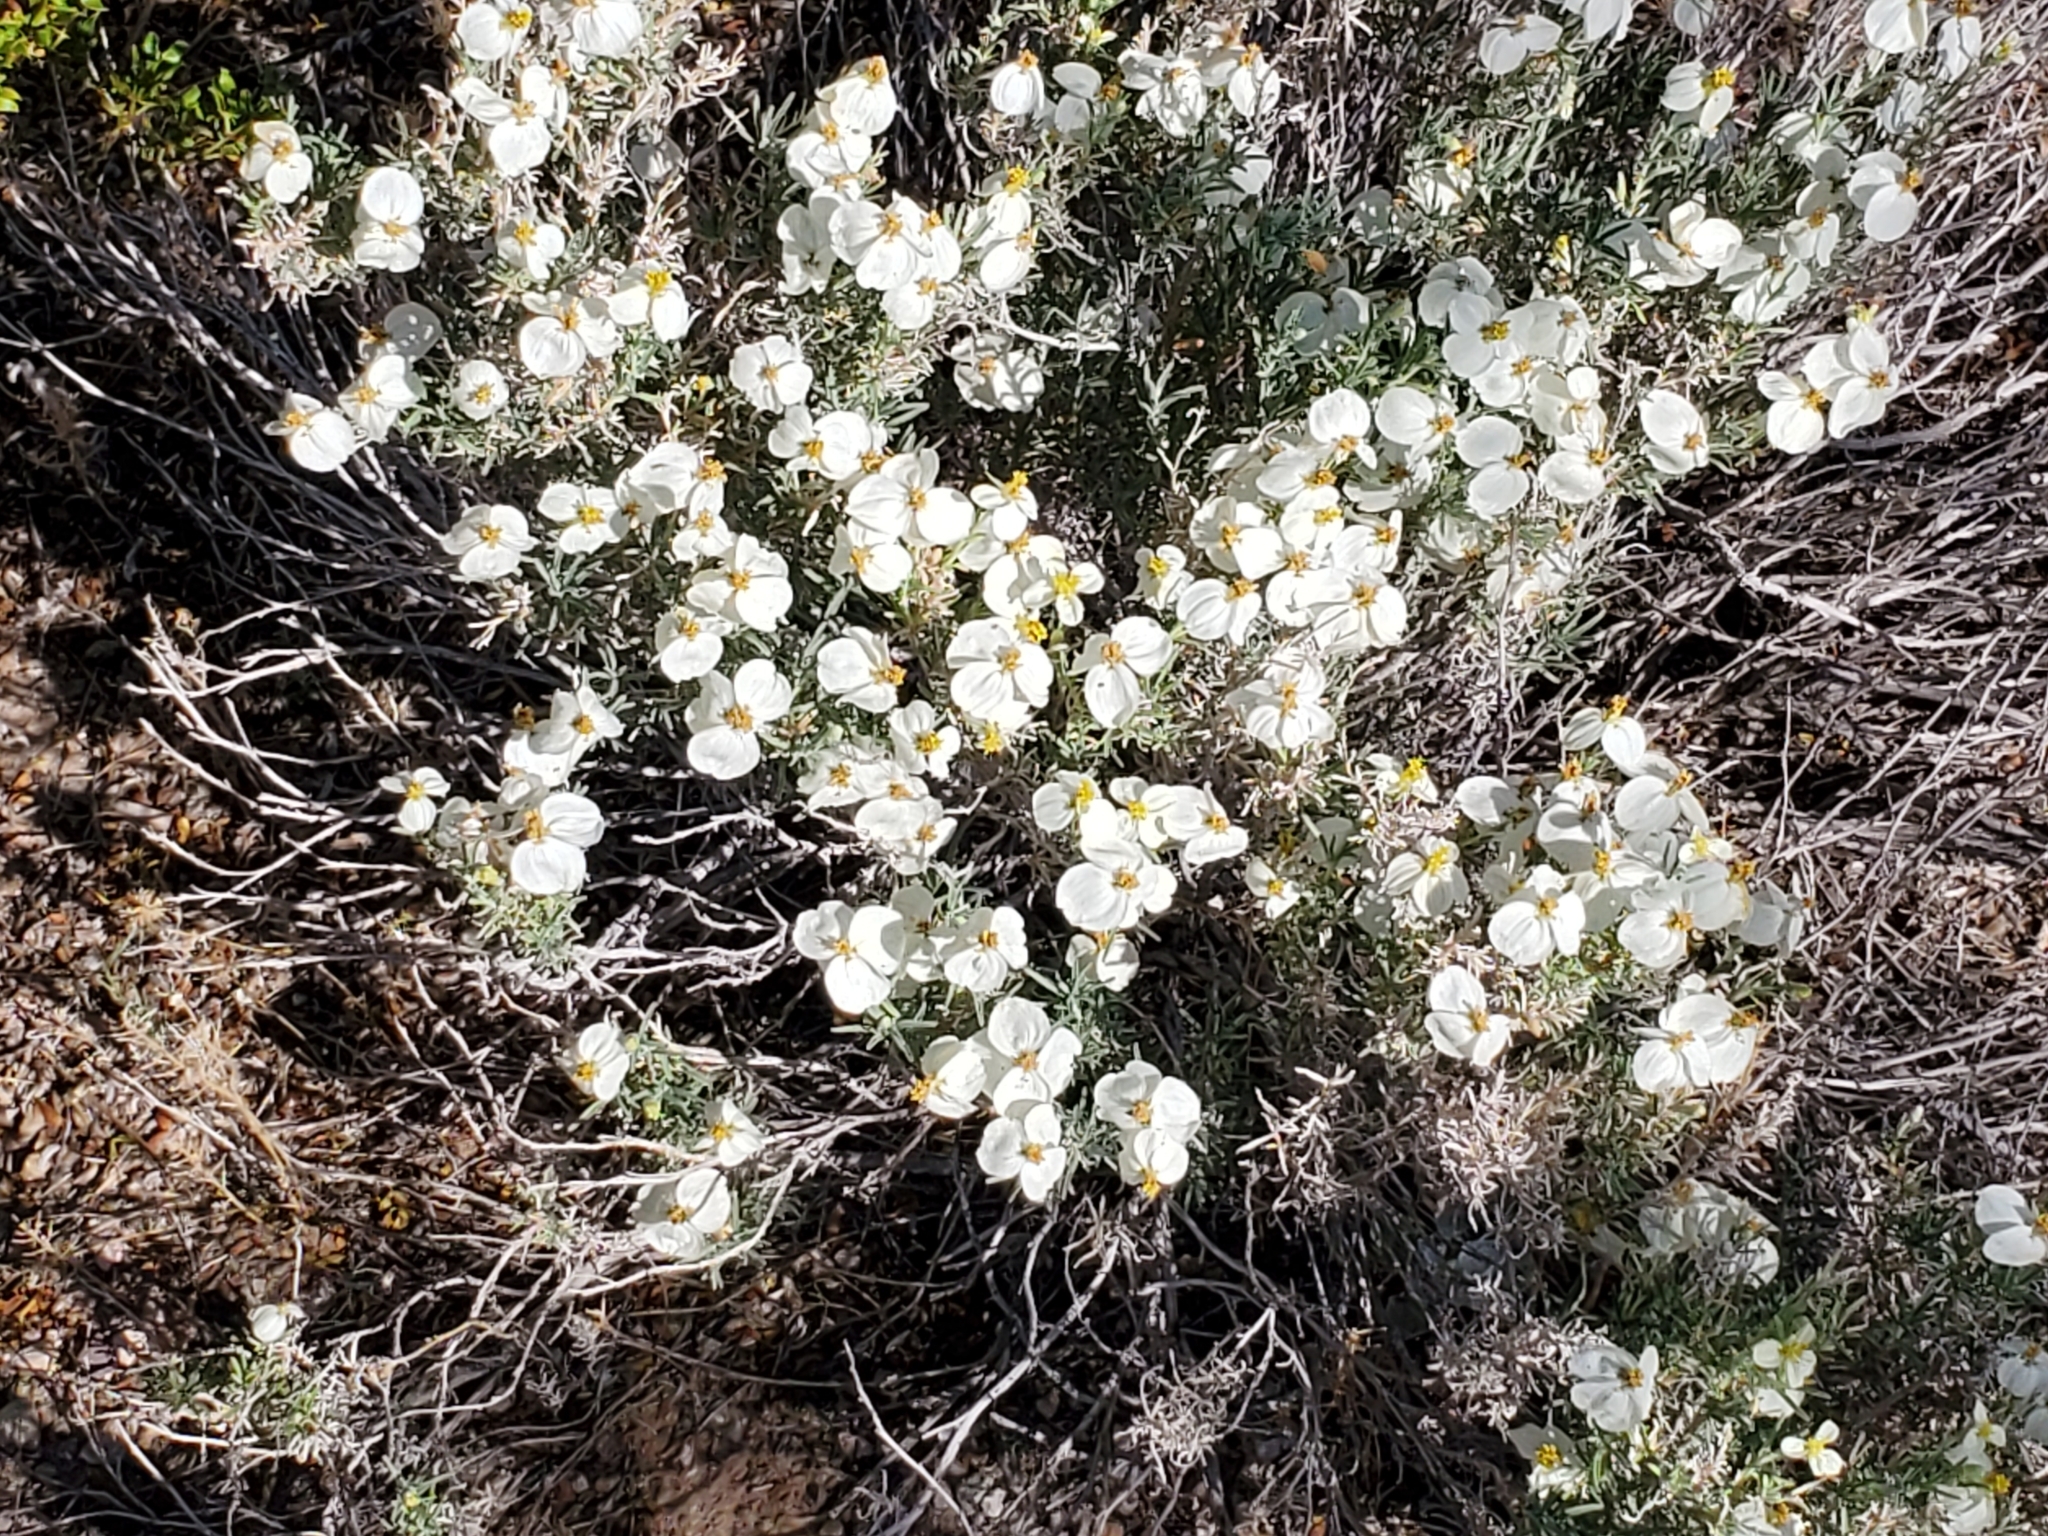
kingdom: Plantae
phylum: Tracheophyta
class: Magnoliopsida
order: Asterales
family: Asteraceae
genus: Zinnia
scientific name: Zinnia acerosa
